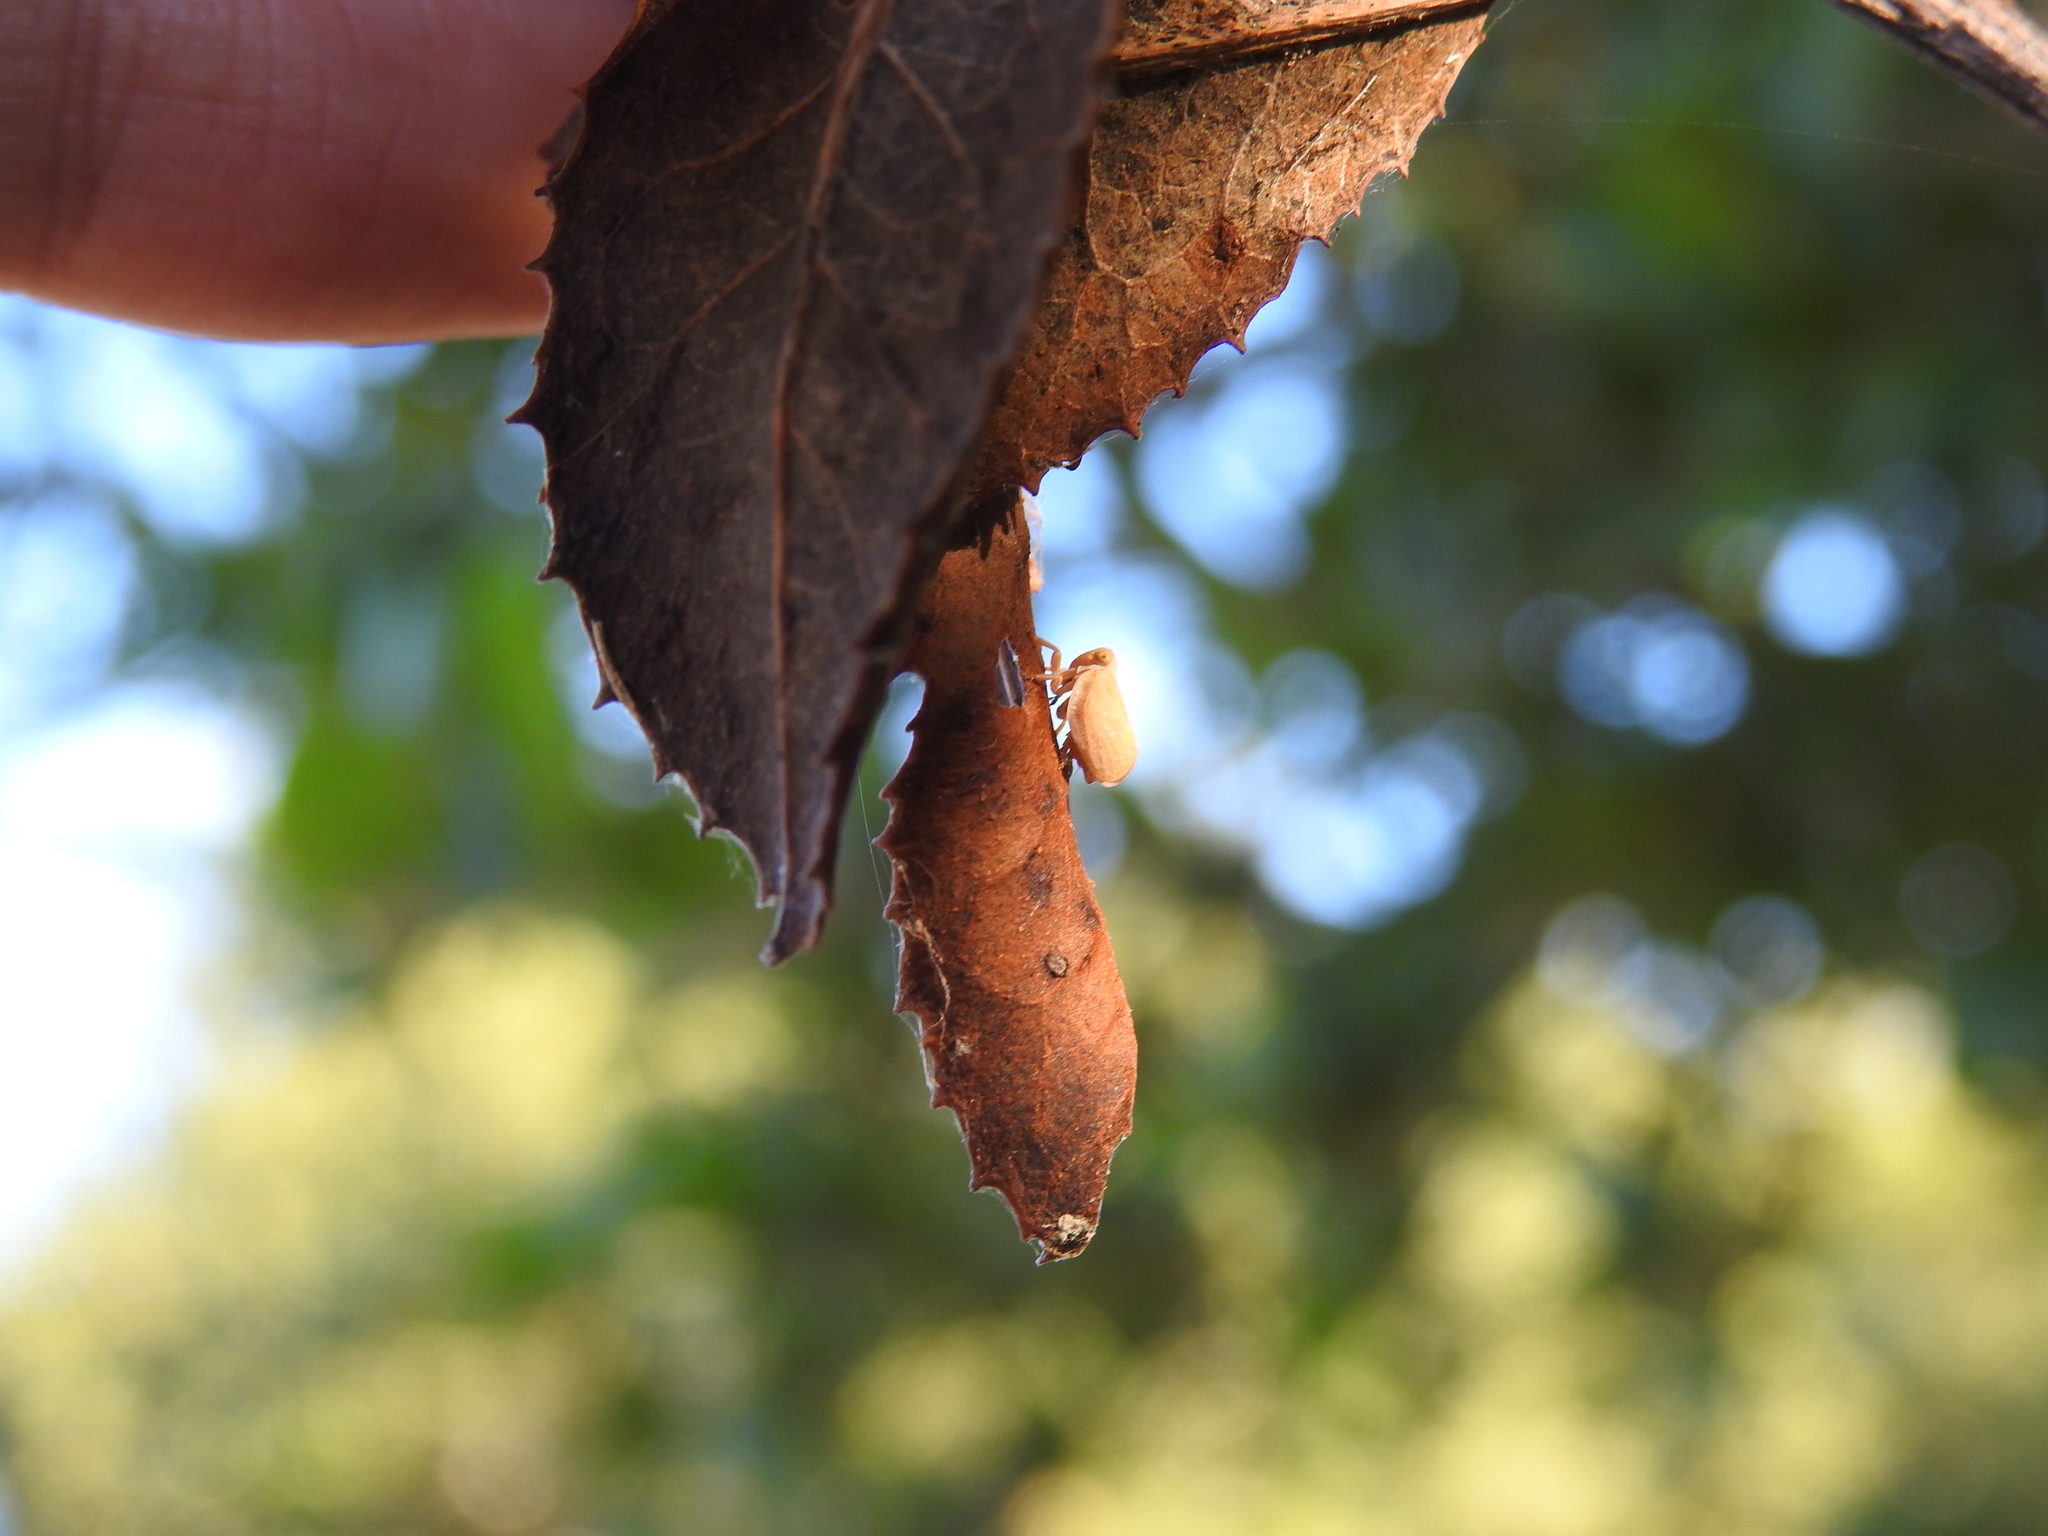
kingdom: Animalia
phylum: Arthropoda
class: Insecta
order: Hemiptera
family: Issidae
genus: Agalmatium
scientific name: Agalmatium bilobum
